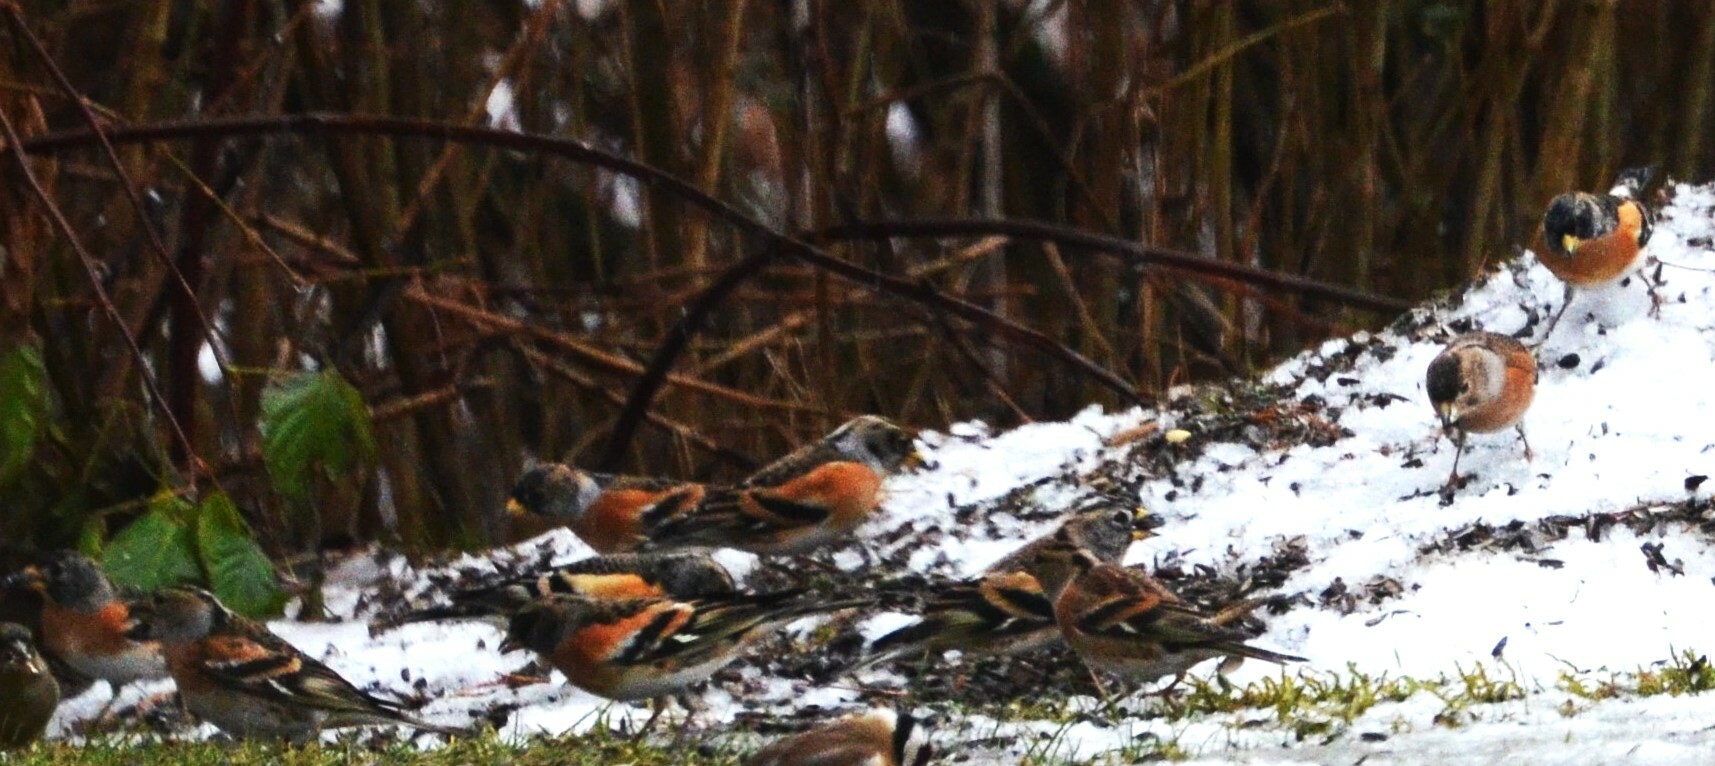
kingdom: Animalia
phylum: Chordata
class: Aves
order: Passeriformes
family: Fringillidae
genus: Fringilla
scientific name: Fringilla montifringilla
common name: Brambling
